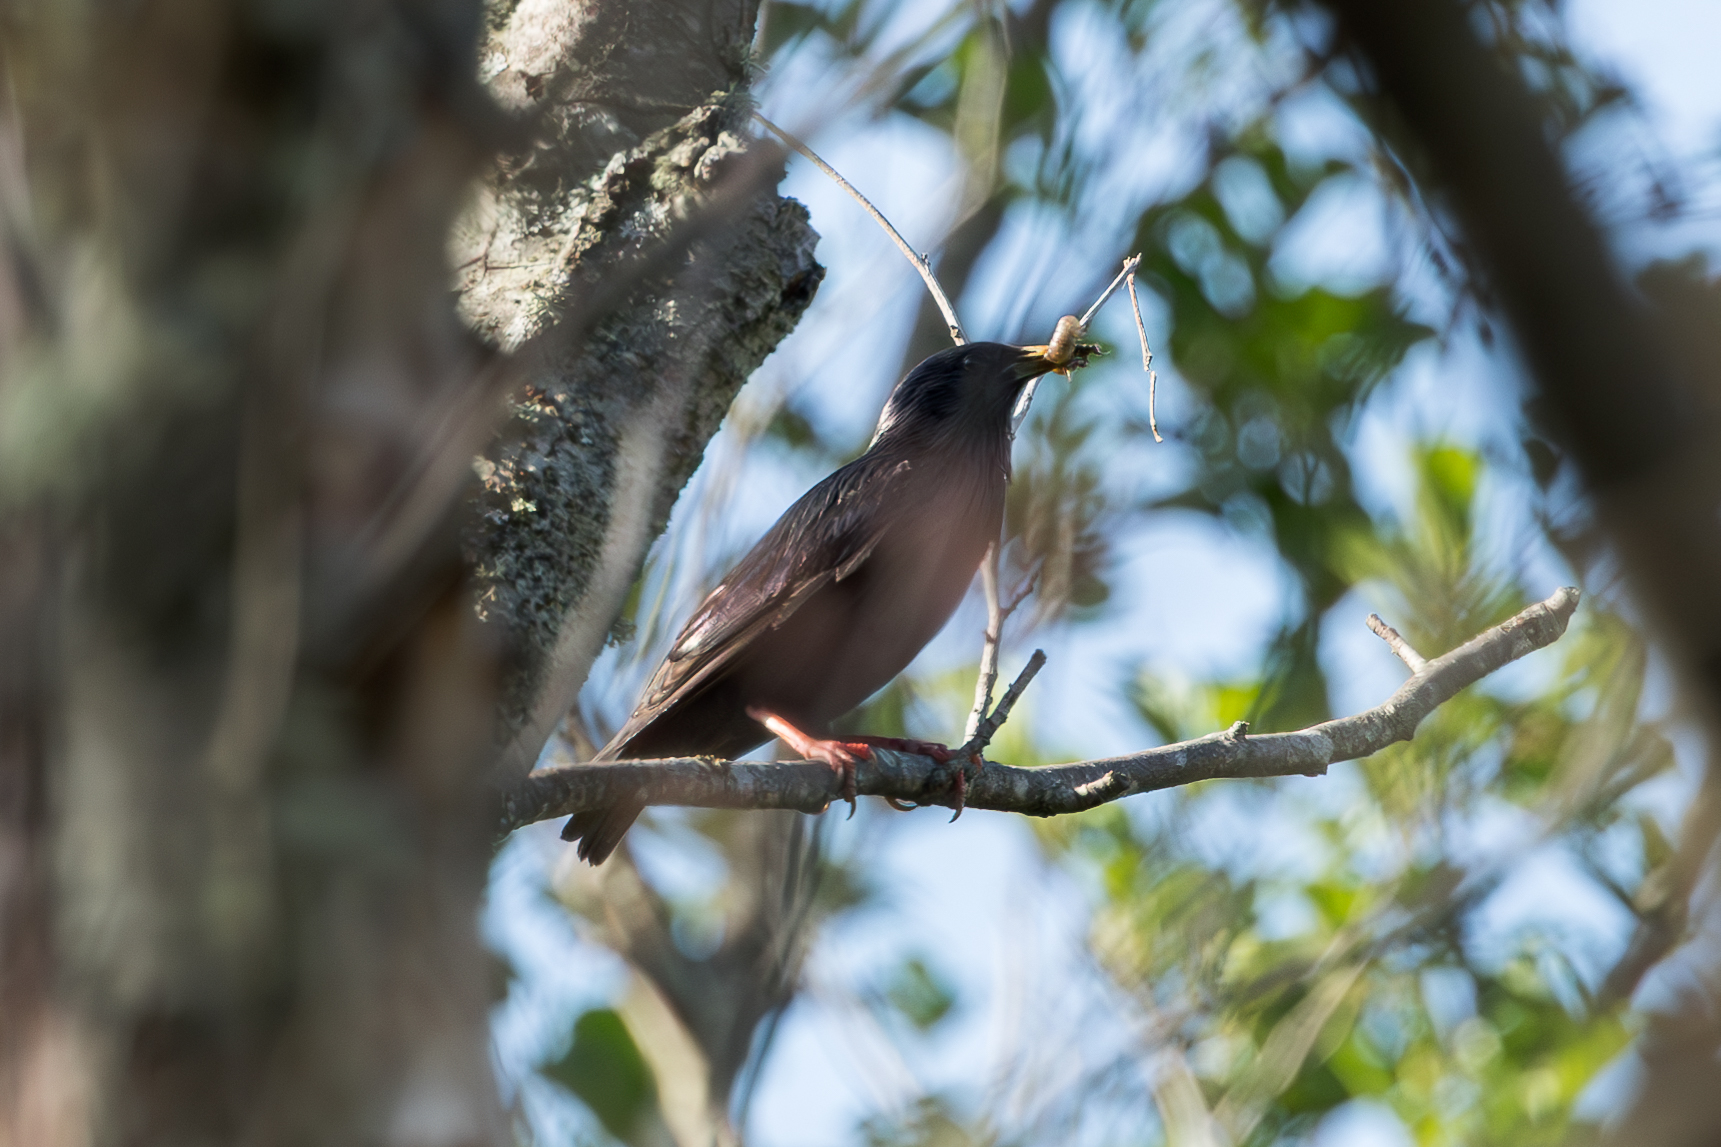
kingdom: Animalia
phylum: Chordata
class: Aves
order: Passeriformes
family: Sturnidae
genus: Sturnus
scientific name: Sturnus unicolor
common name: Spotless starling
